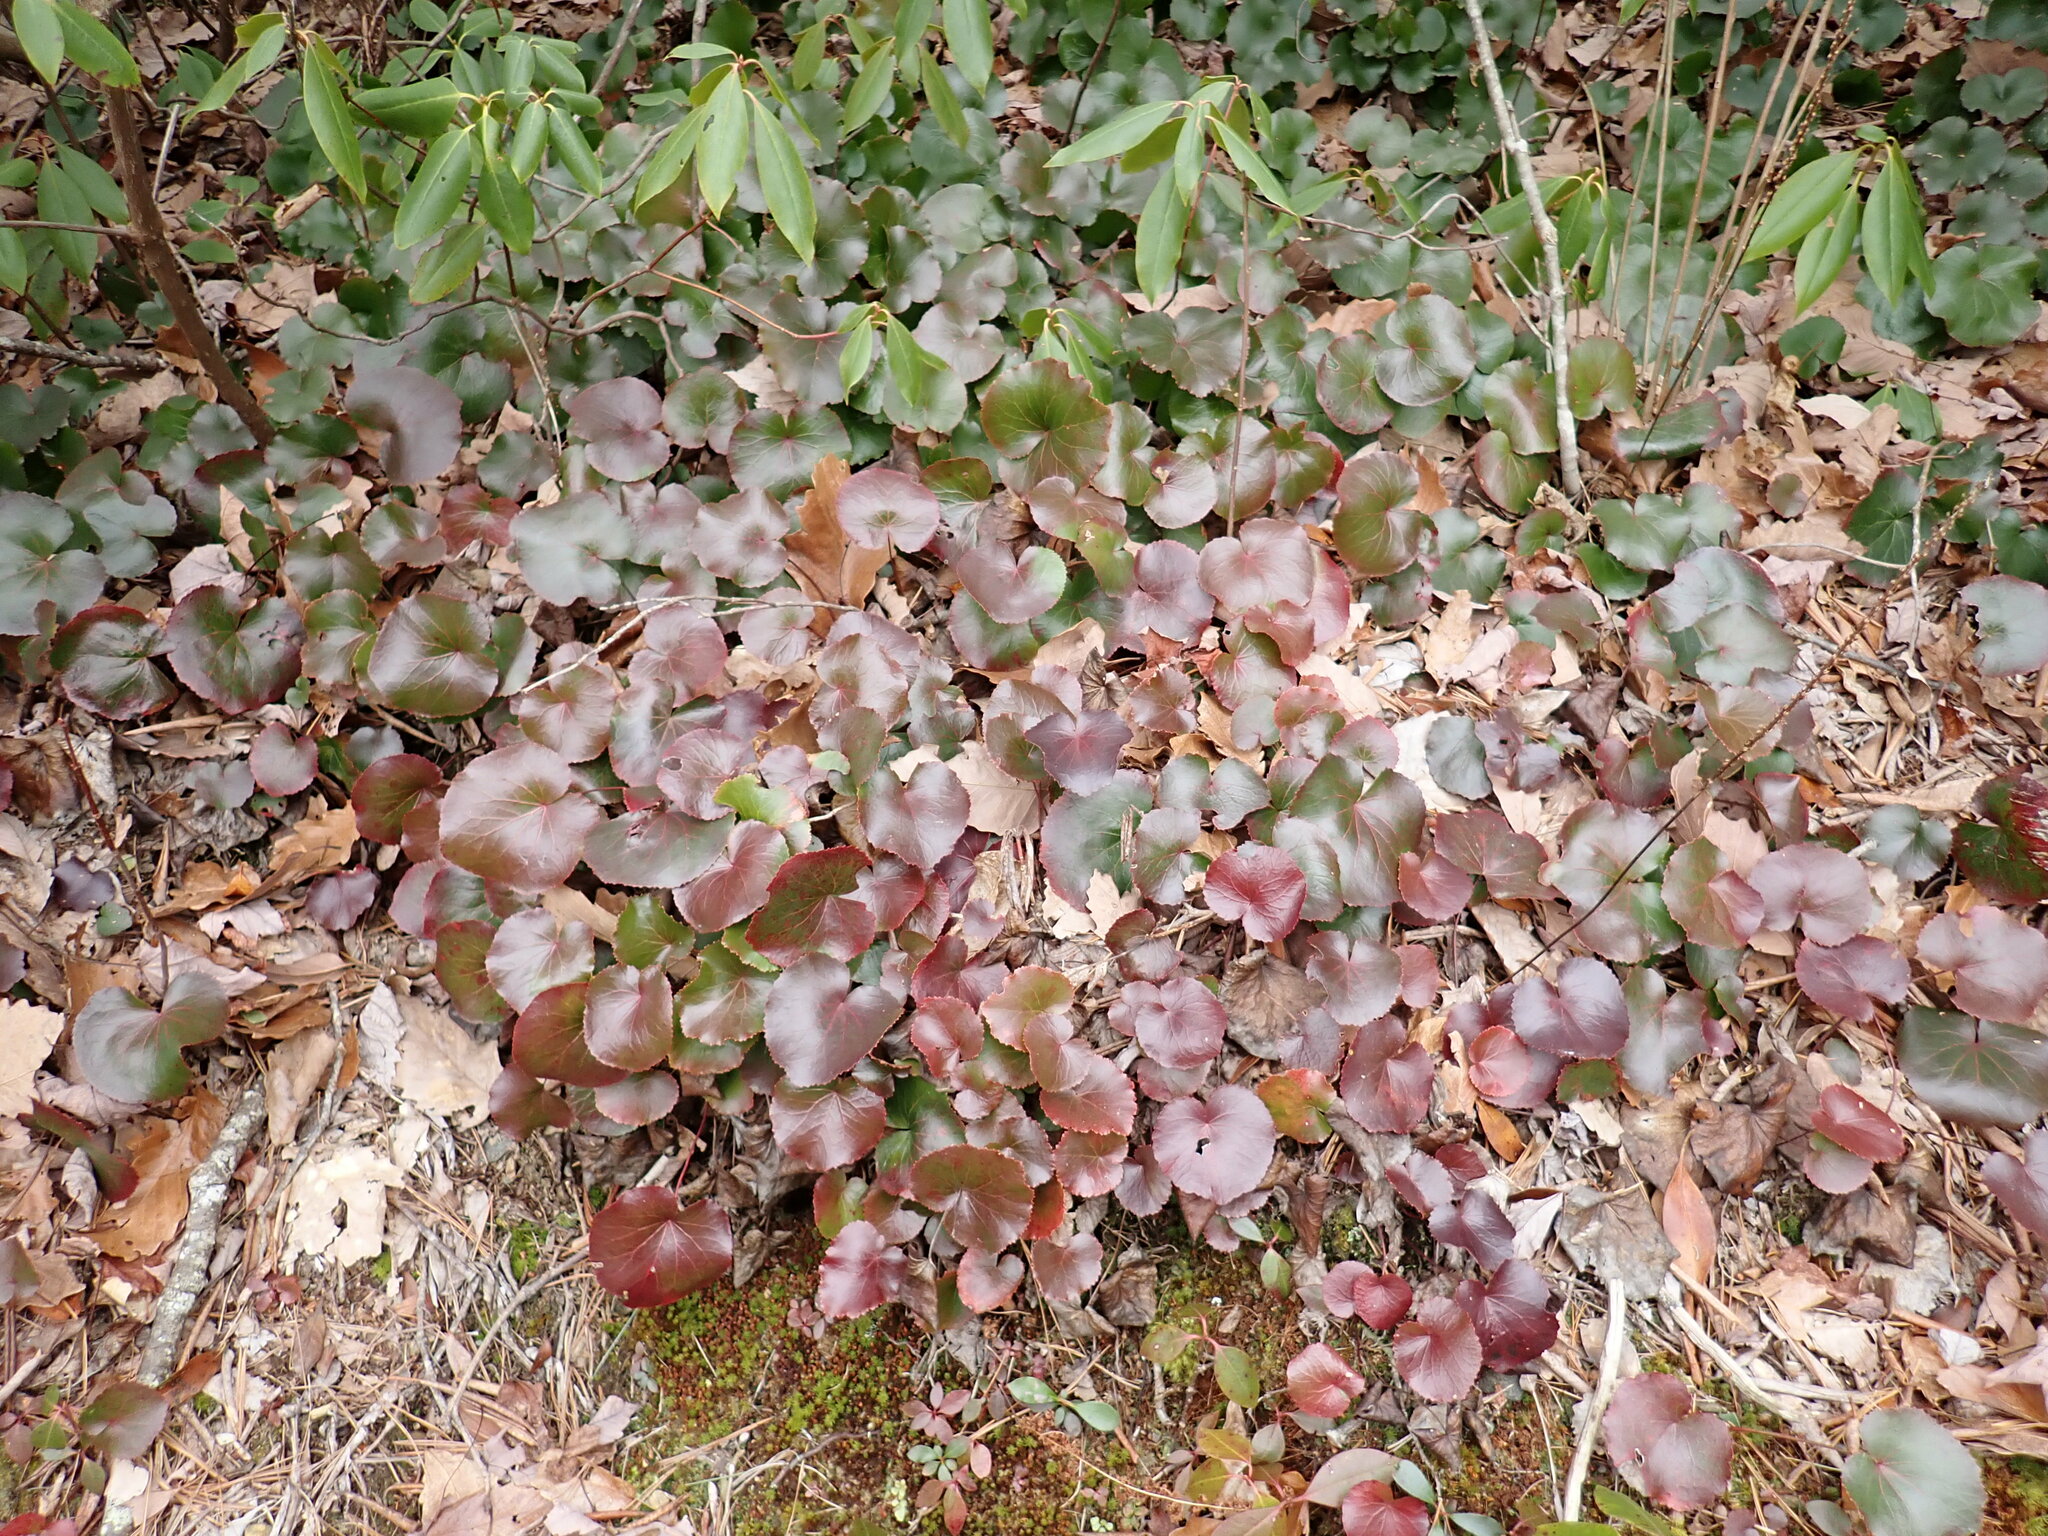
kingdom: Plantae
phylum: Tracheophyta
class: Magnoliopsida
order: Ericales
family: Diapensiaceae
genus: Galax
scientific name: Galax urceolata
